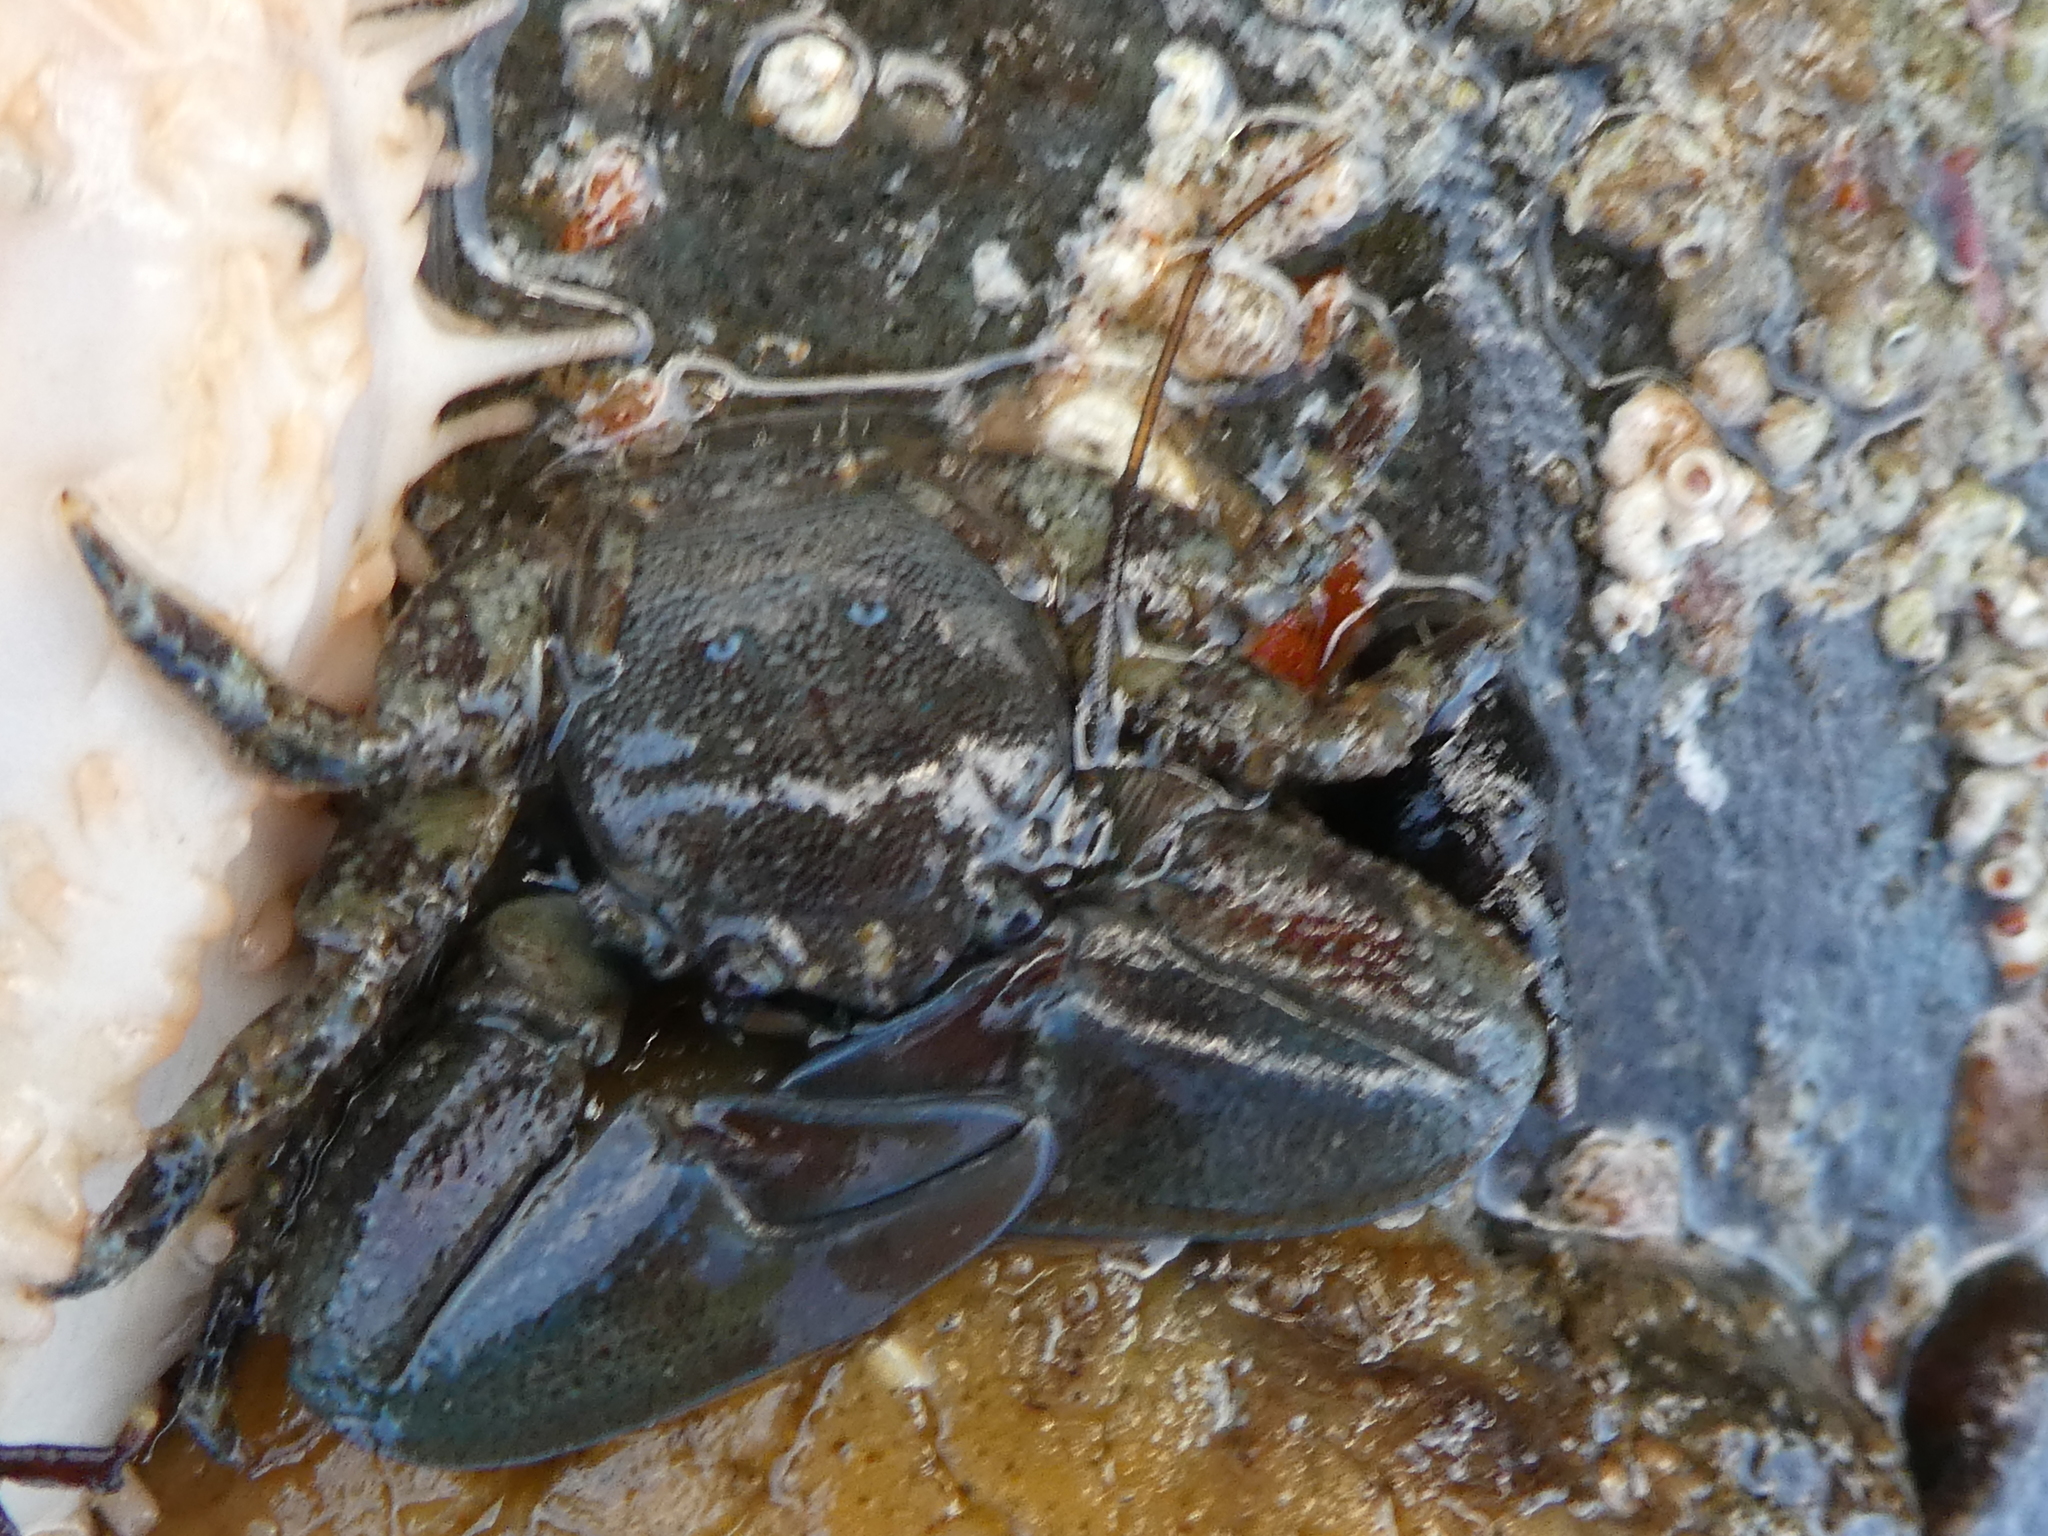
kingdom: Animalia
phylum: Arthropoda
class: Malacostraca
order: Decapoda
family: Porcellanidae
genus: Petrolisthes
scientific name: Petrolisthes eriomerus
